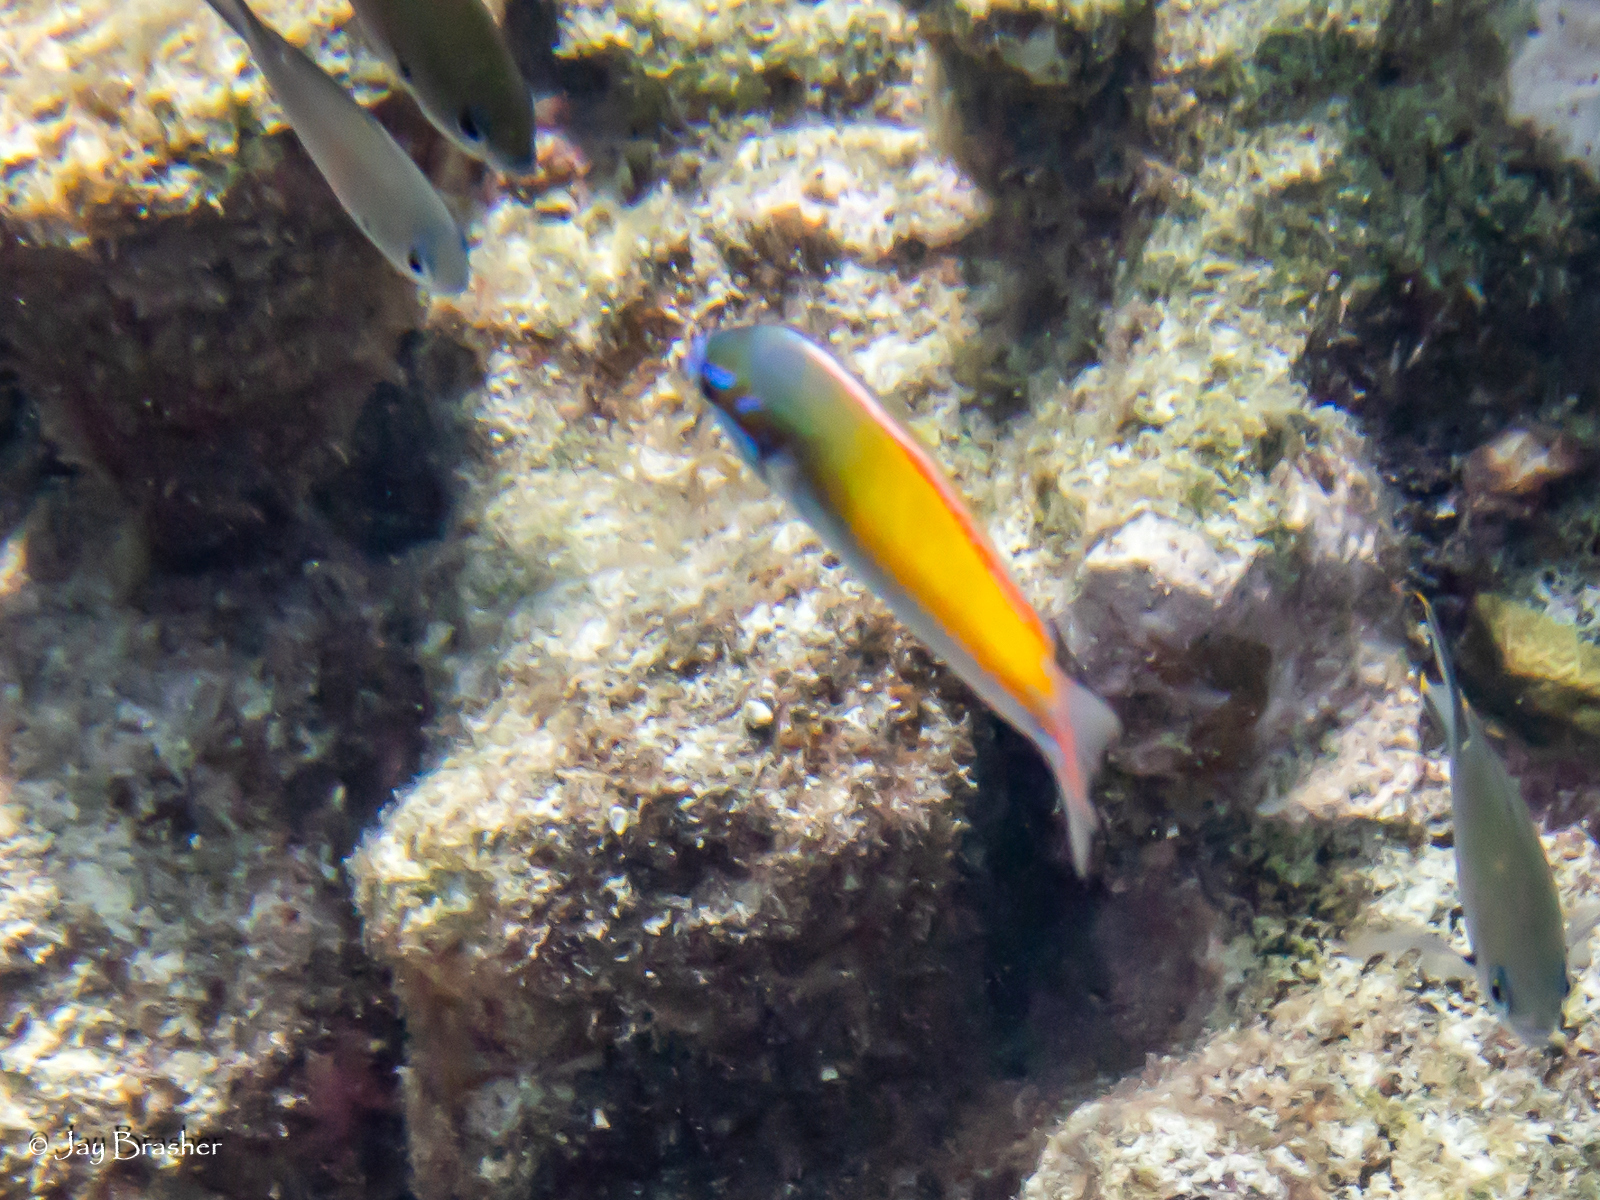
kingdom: Animalia
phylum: Chordata
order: Perciformes
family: Labridae
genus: Halichoeres
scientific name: Halichoeres pictus
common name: Rainbow wrasse
